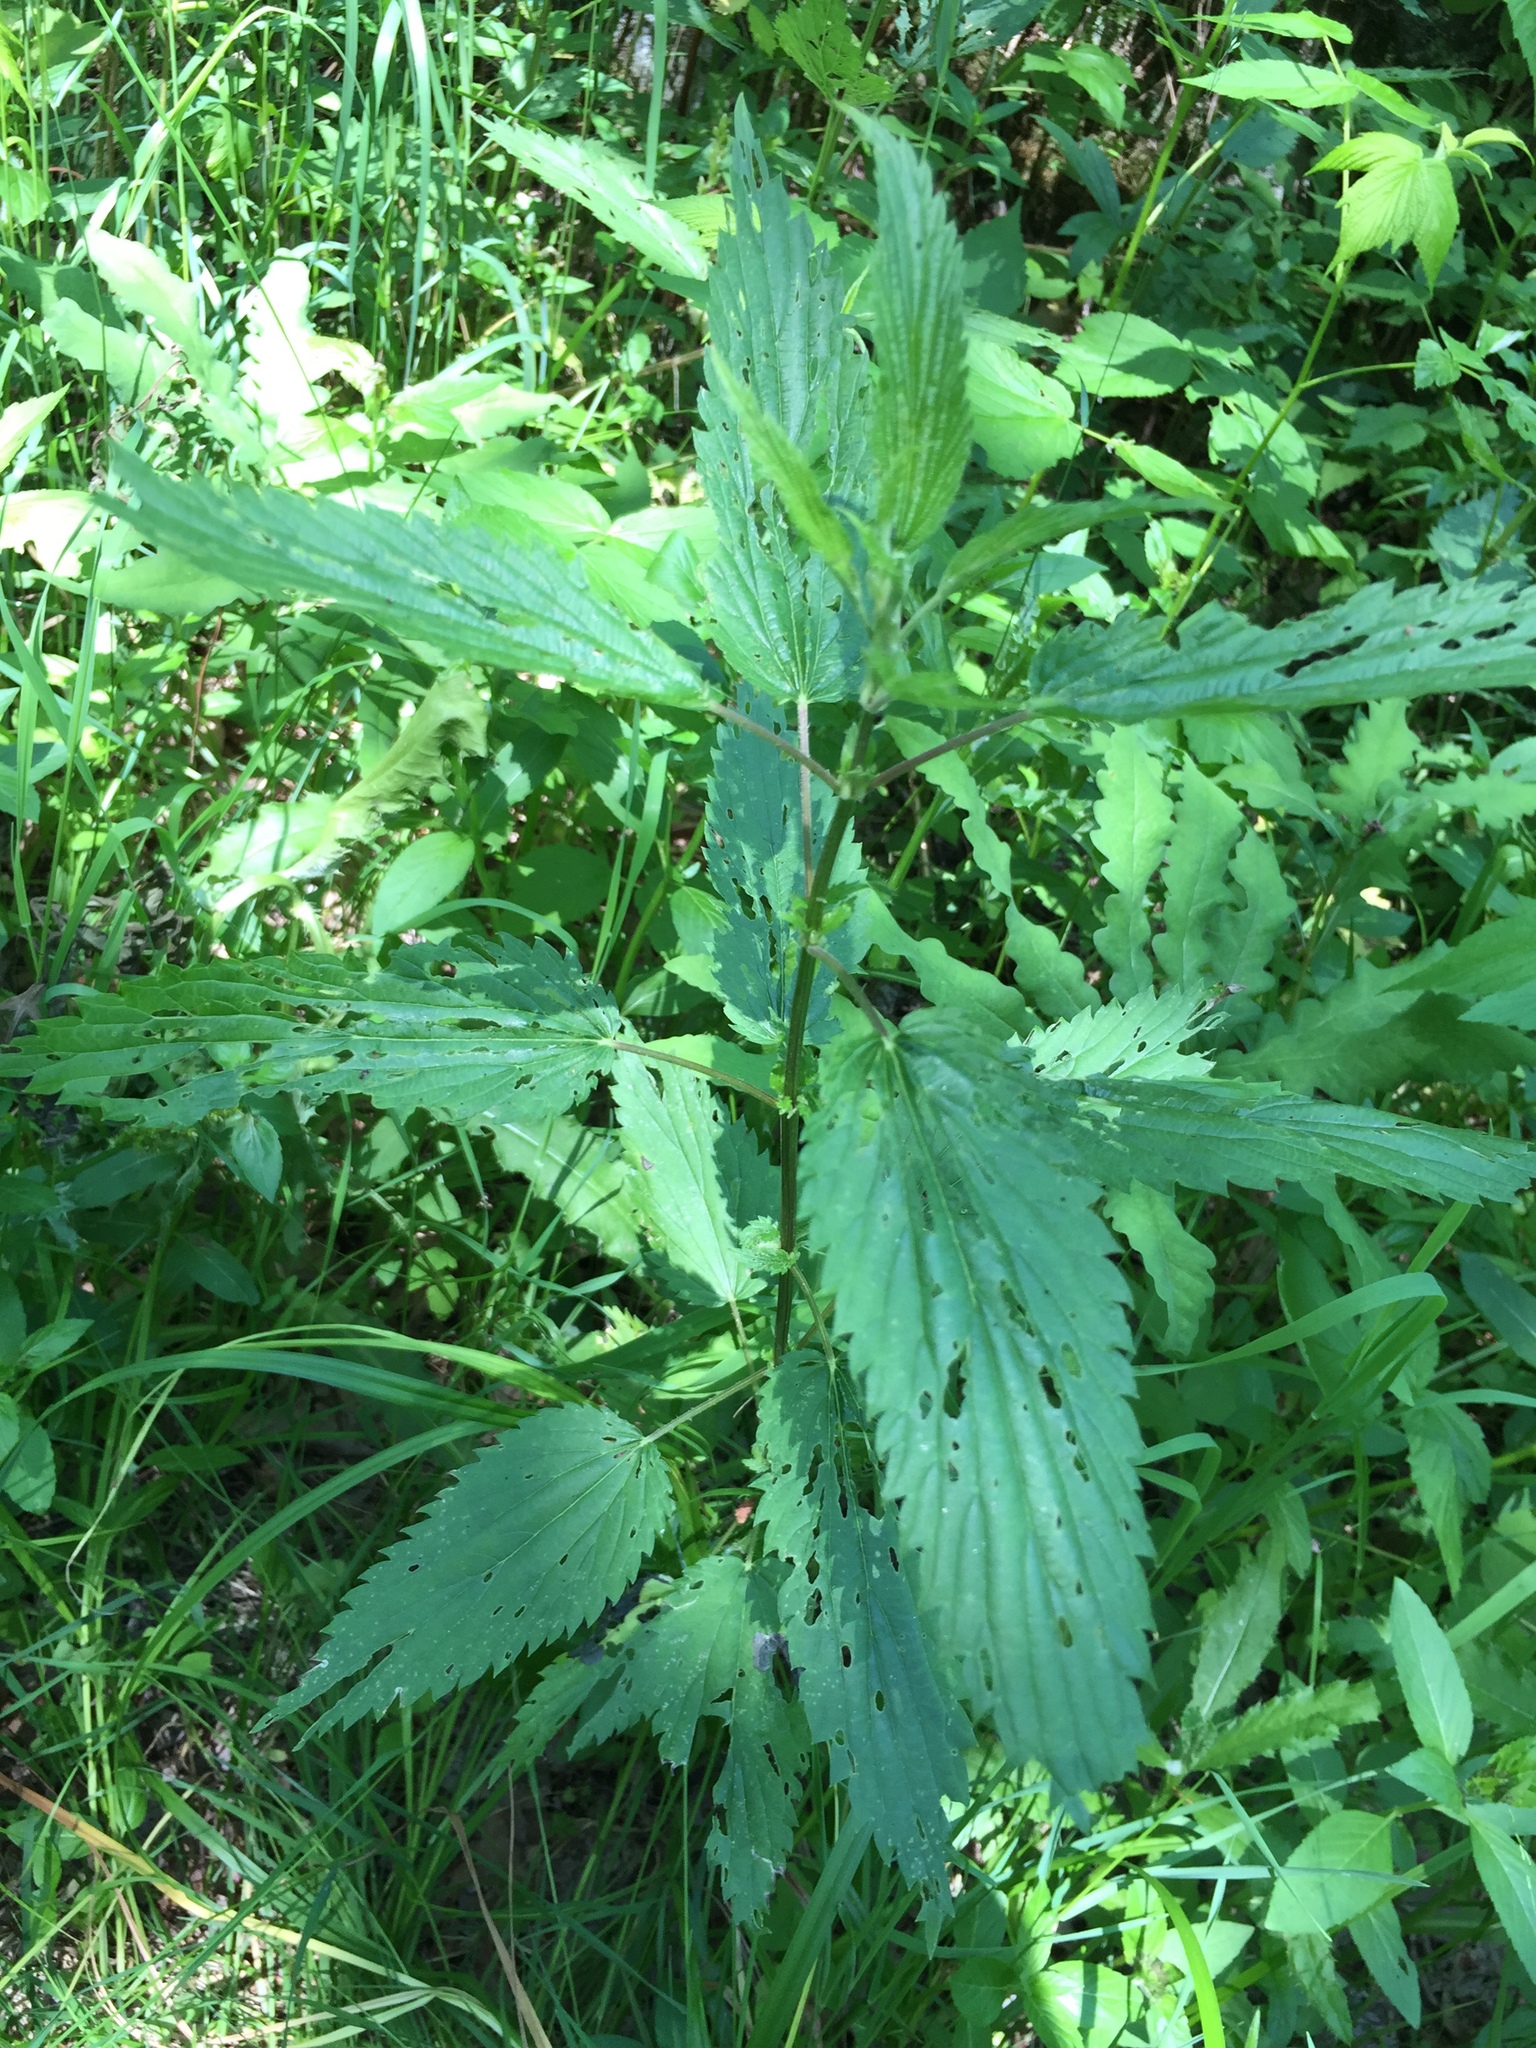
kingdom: Plantae
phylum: Tracheophyta
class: Magnoliopsida
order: Rosales
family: Urticaceae
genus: Urtica
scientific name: Urtica gracilis
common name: Slender stinging nettle
